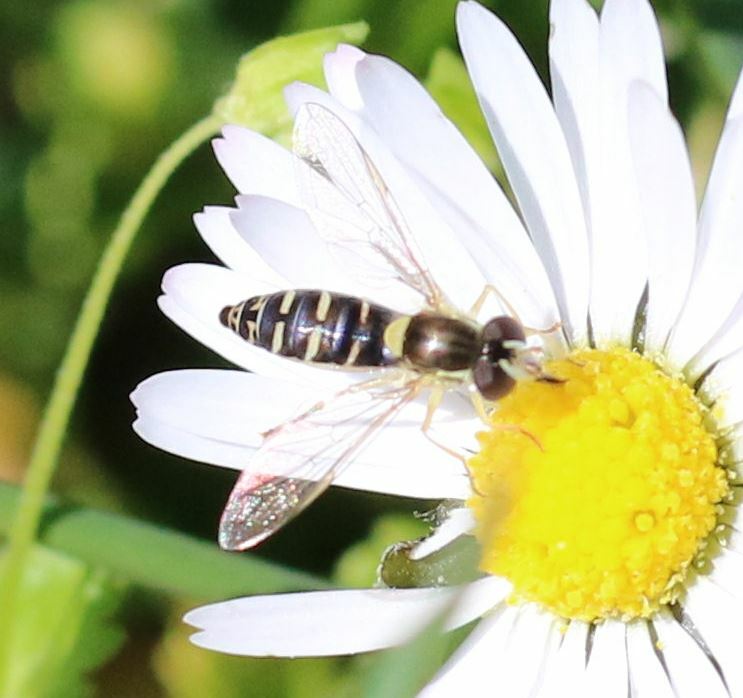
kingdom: Animalia
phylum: Arthropoda
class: Insecta
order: Diptera
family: Syrphidae
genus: Sphaerophoria
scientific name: Sphaerophoria
